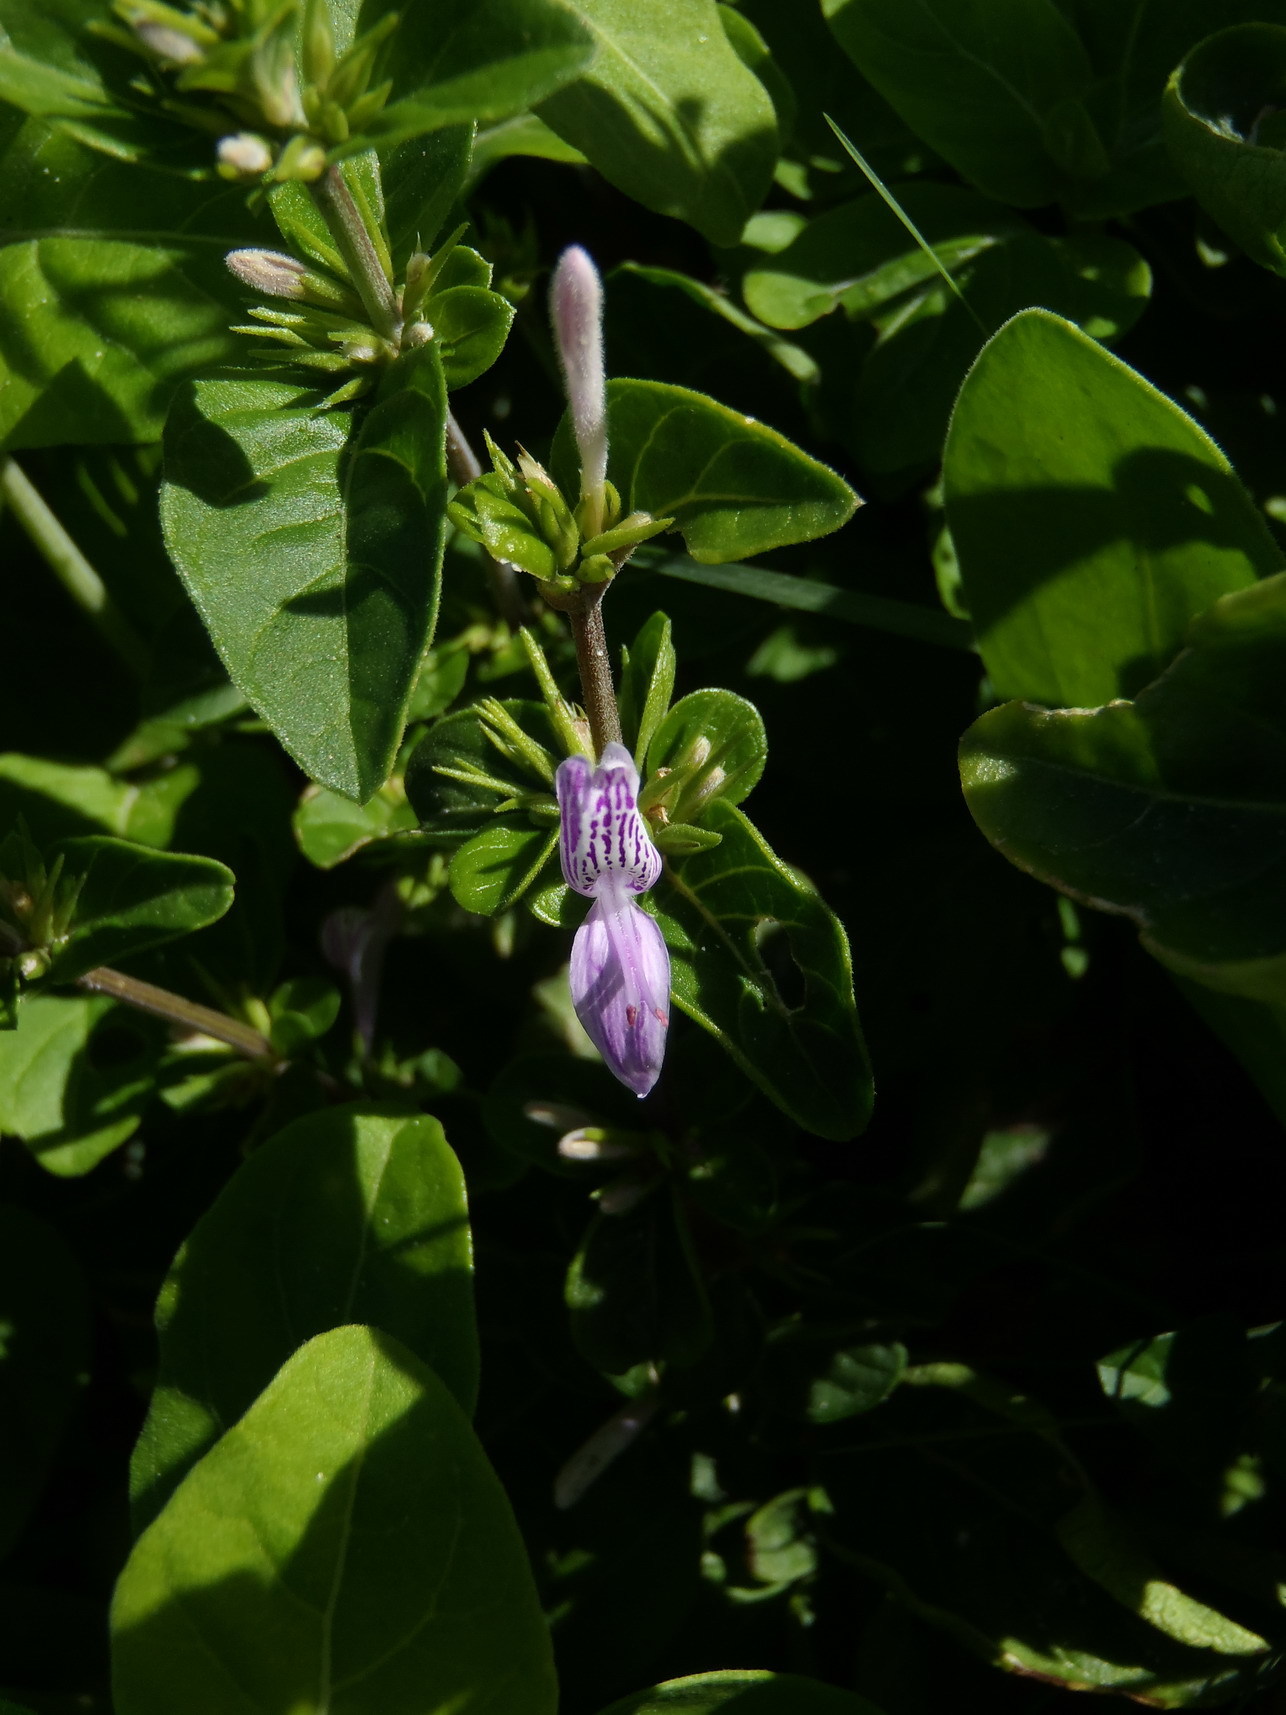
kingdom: Plantae
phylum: Tracheophyta
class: Magnoliopsida
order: Lamiales
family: Acanthaceae
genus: Hypoestes
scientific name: Hypoestes aristata
